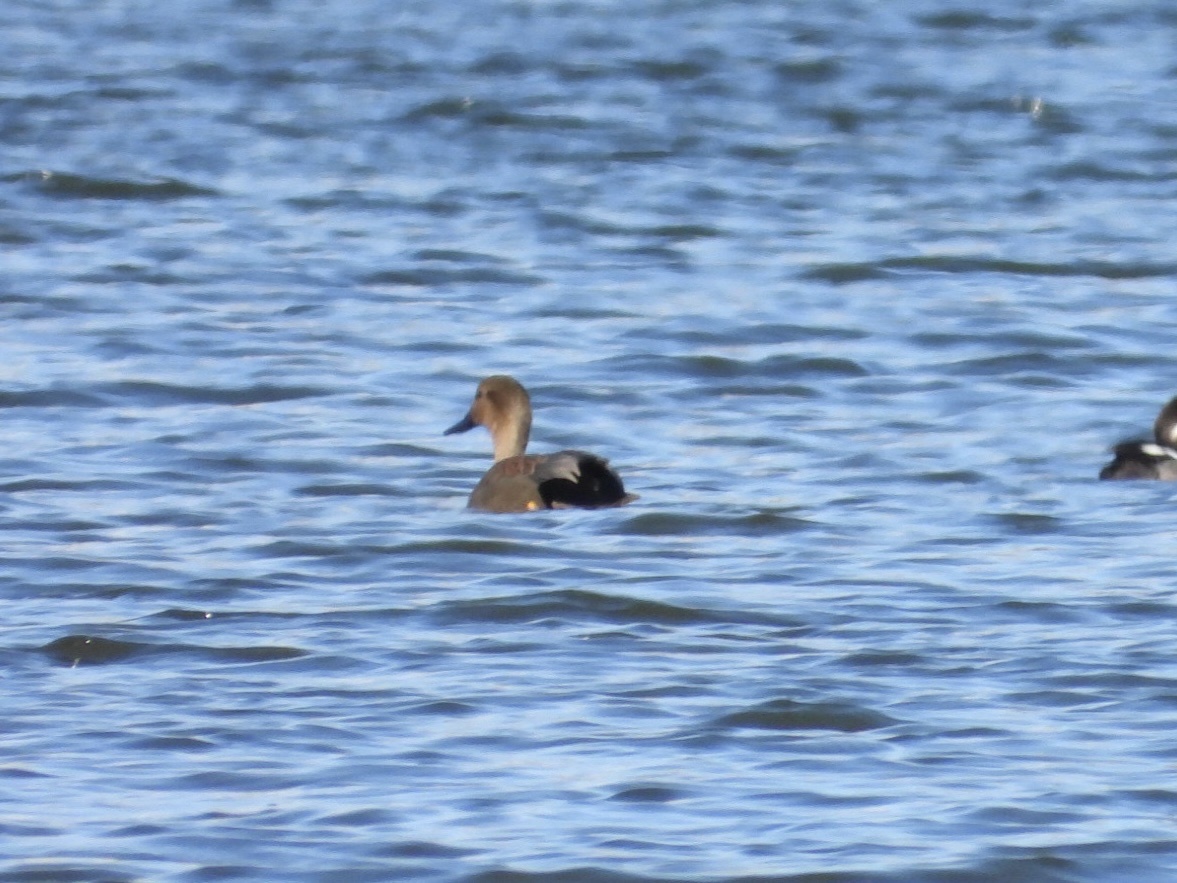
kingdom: Animalia
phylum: Chordata
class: Aves
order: Anseriformes
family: Anatidae
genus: Mareca
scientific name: Mareca strepera
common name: Gadwall
